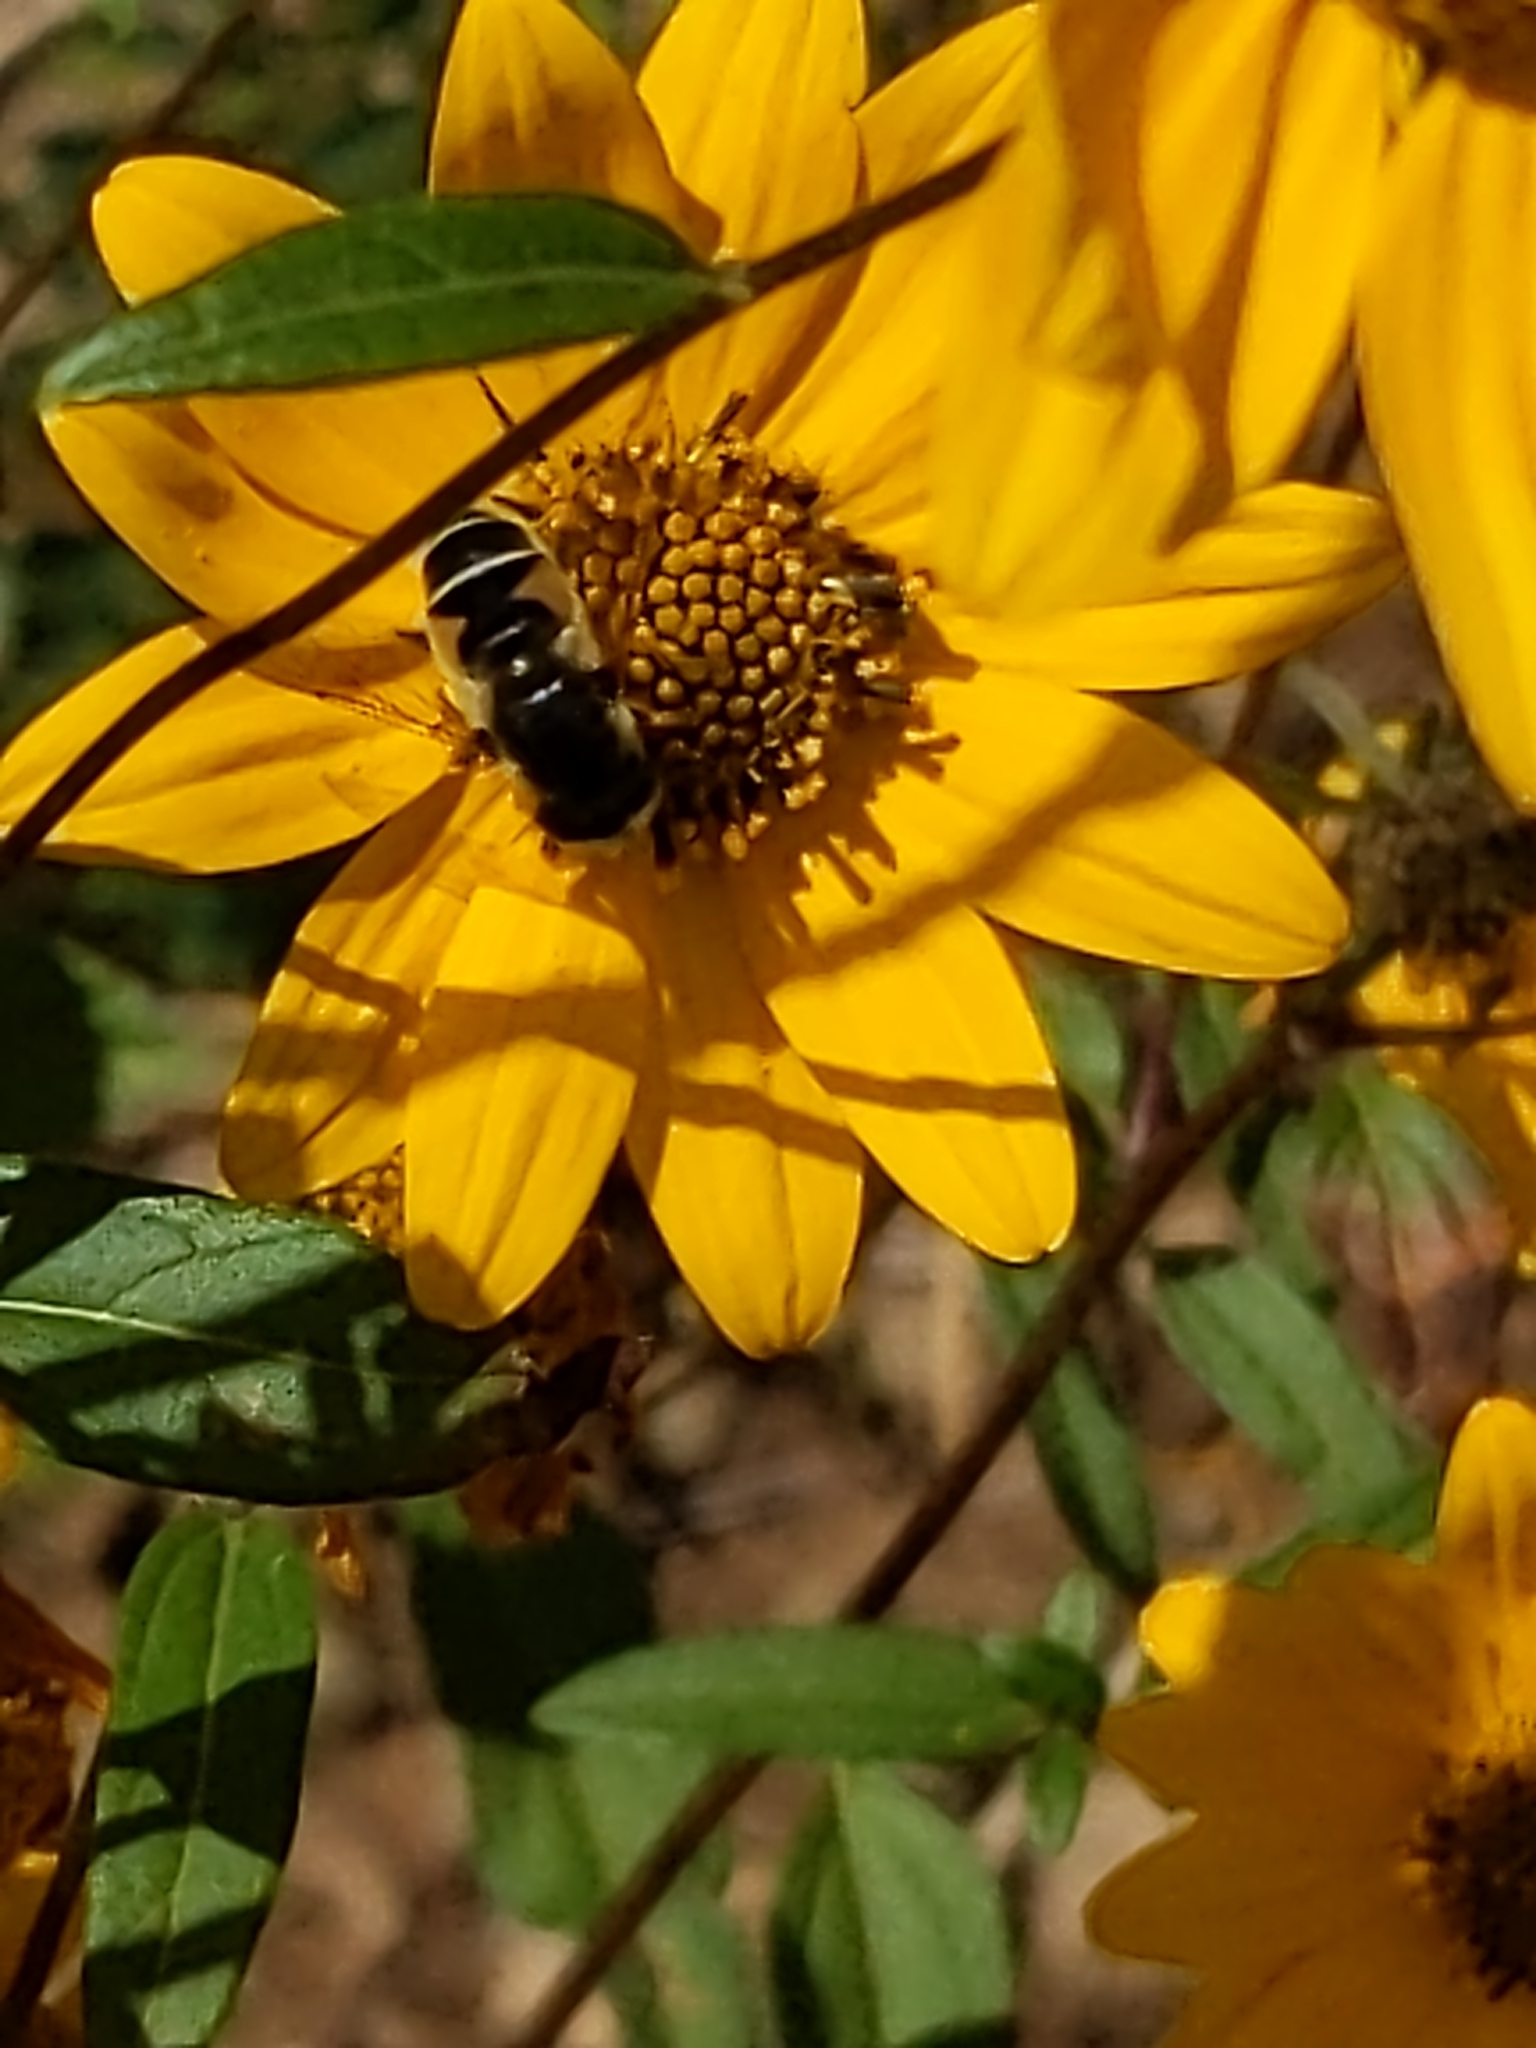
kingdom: Animalia
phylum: Arthropoda
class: Insecta
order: Diptera
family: Syrphidae
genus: Eristalis
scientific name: Eristalis hirta
